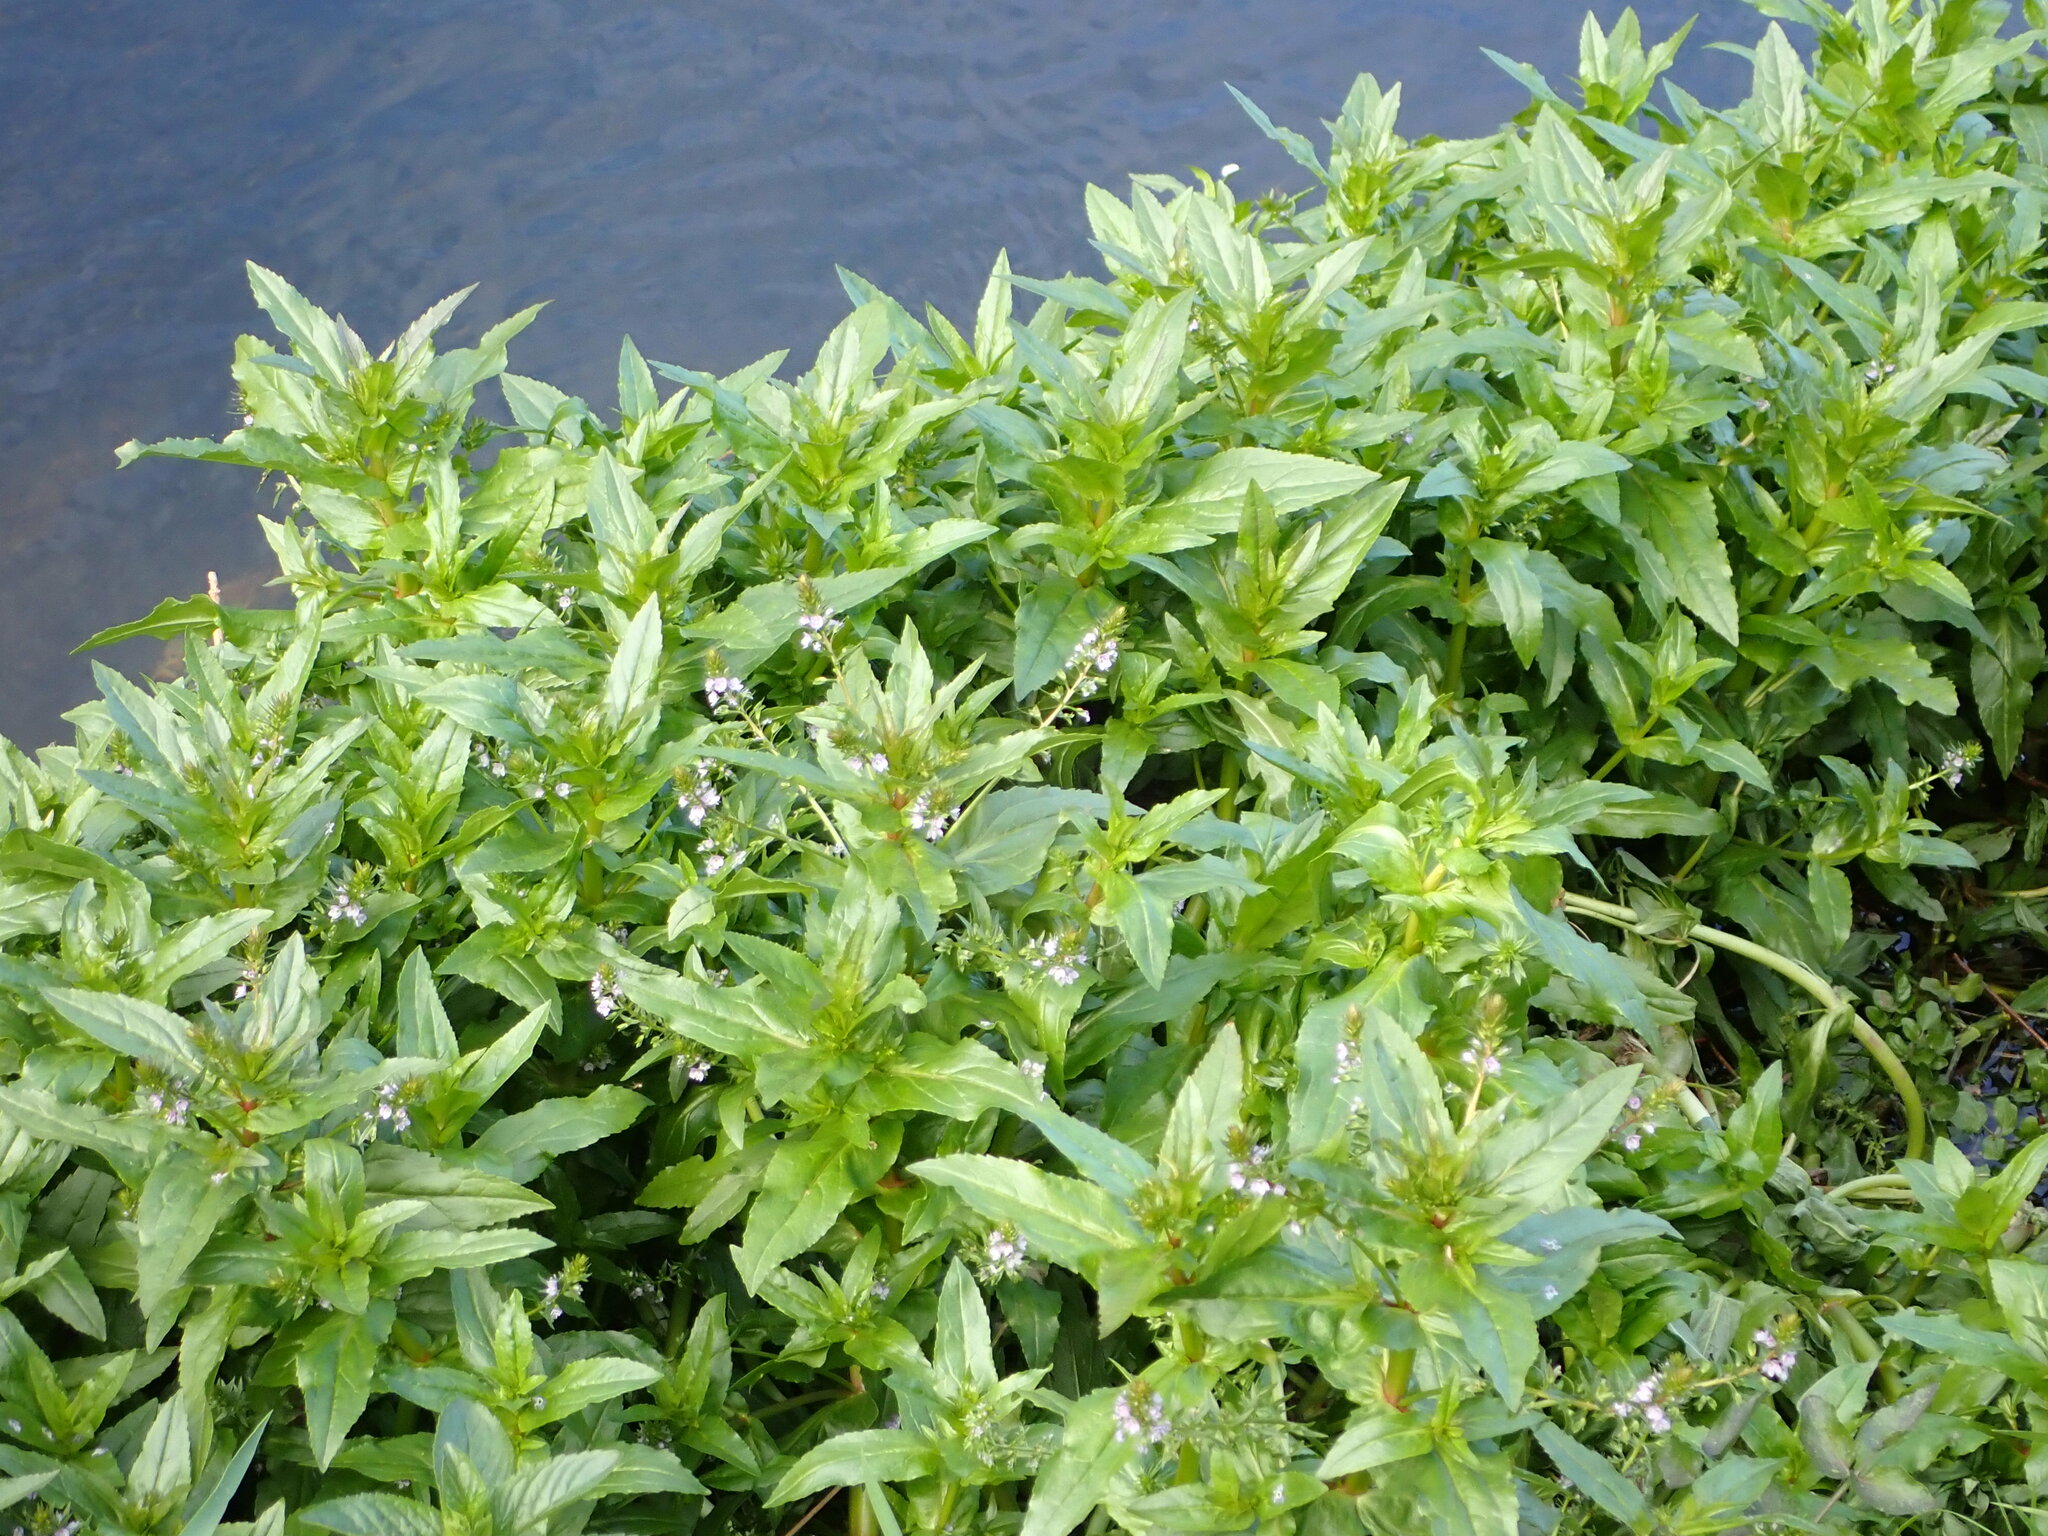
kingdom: Plantae
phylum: Tracheophyta
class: Magnoliopsida
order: Lamiales
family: Plantaginaceae
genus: Veronica
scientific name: Veronica anagallis-aquatica
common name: Water speedwell
